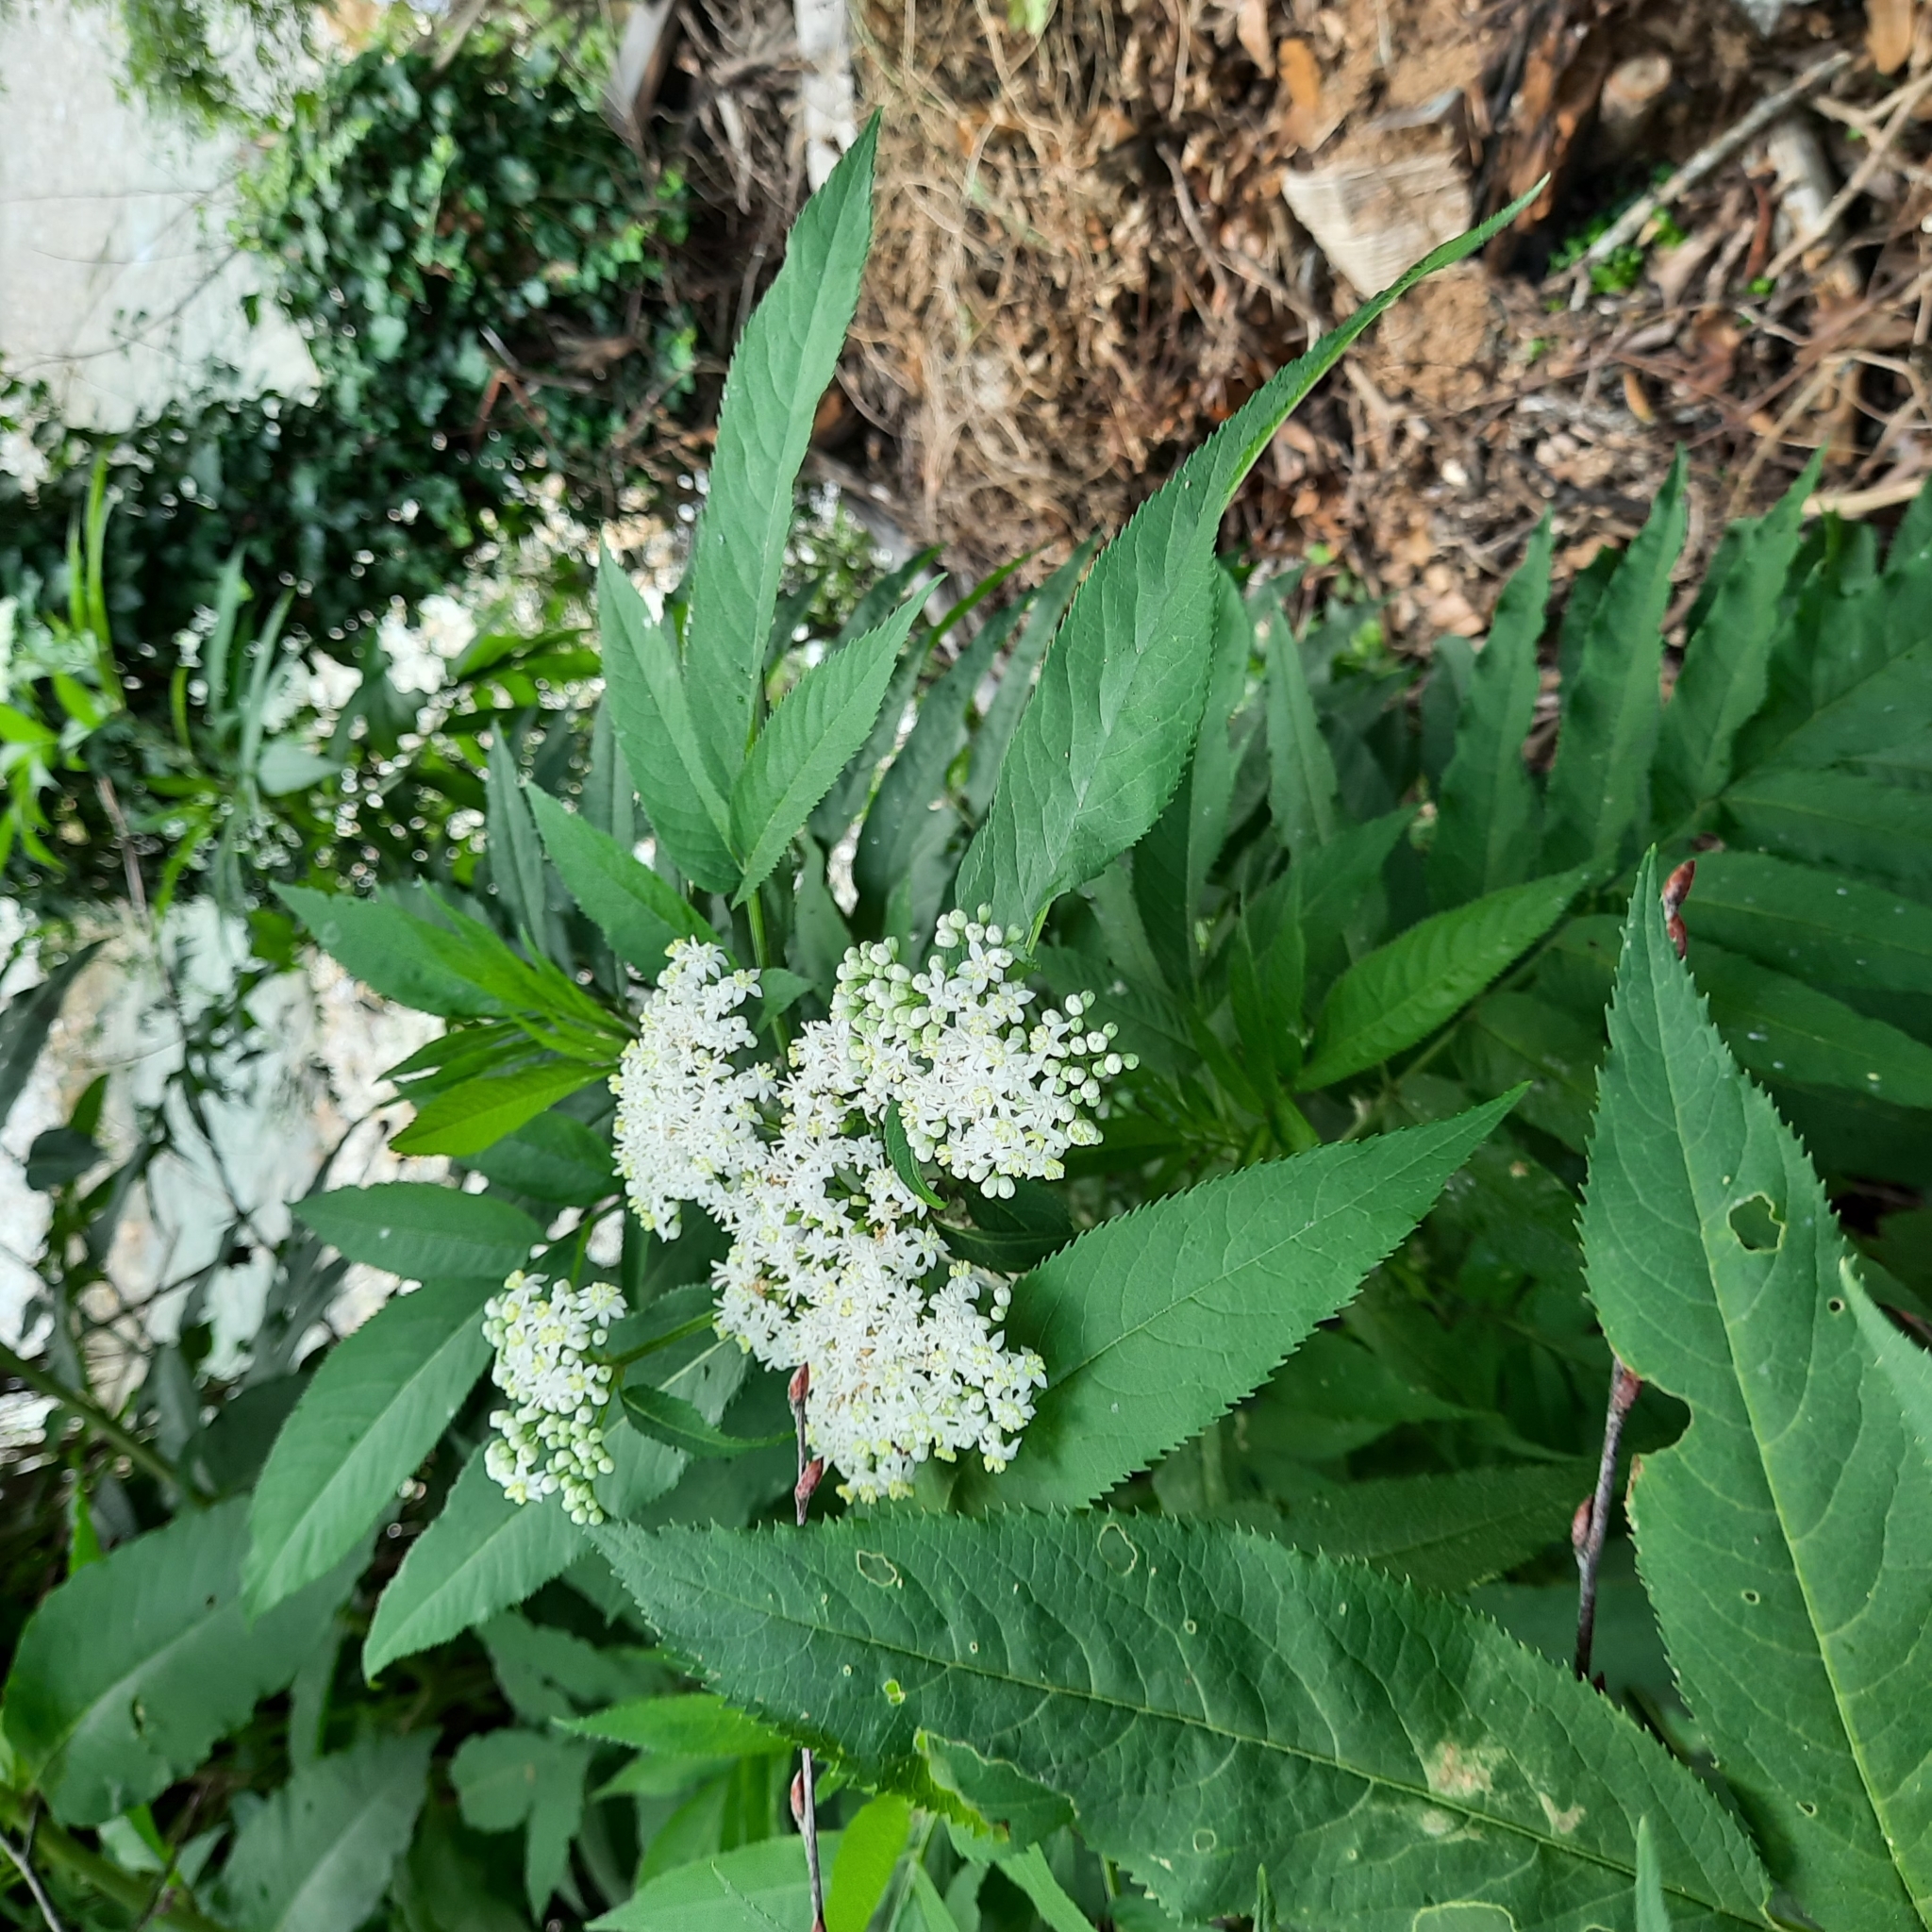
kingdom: Plantae
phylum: Tracheophyta
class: Magnoliopsida
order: Dipsacales
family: Viburnaceae
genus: Sambucus
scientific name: Sambucus nigra
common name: Elder
